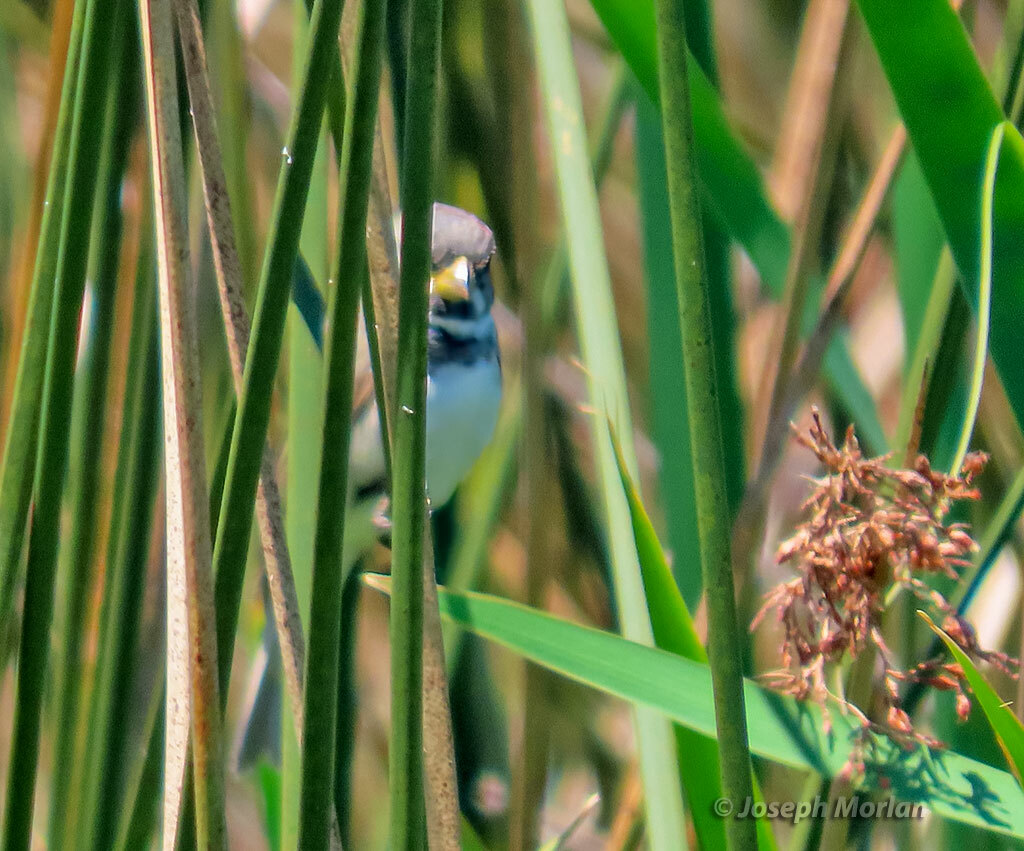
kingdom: Animalia
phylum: Chordata
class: Aves
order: Passeriformes
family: Thraupidae
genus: Sporophila
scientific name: Sporophila caerulescens
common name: Double-collared seedeater
